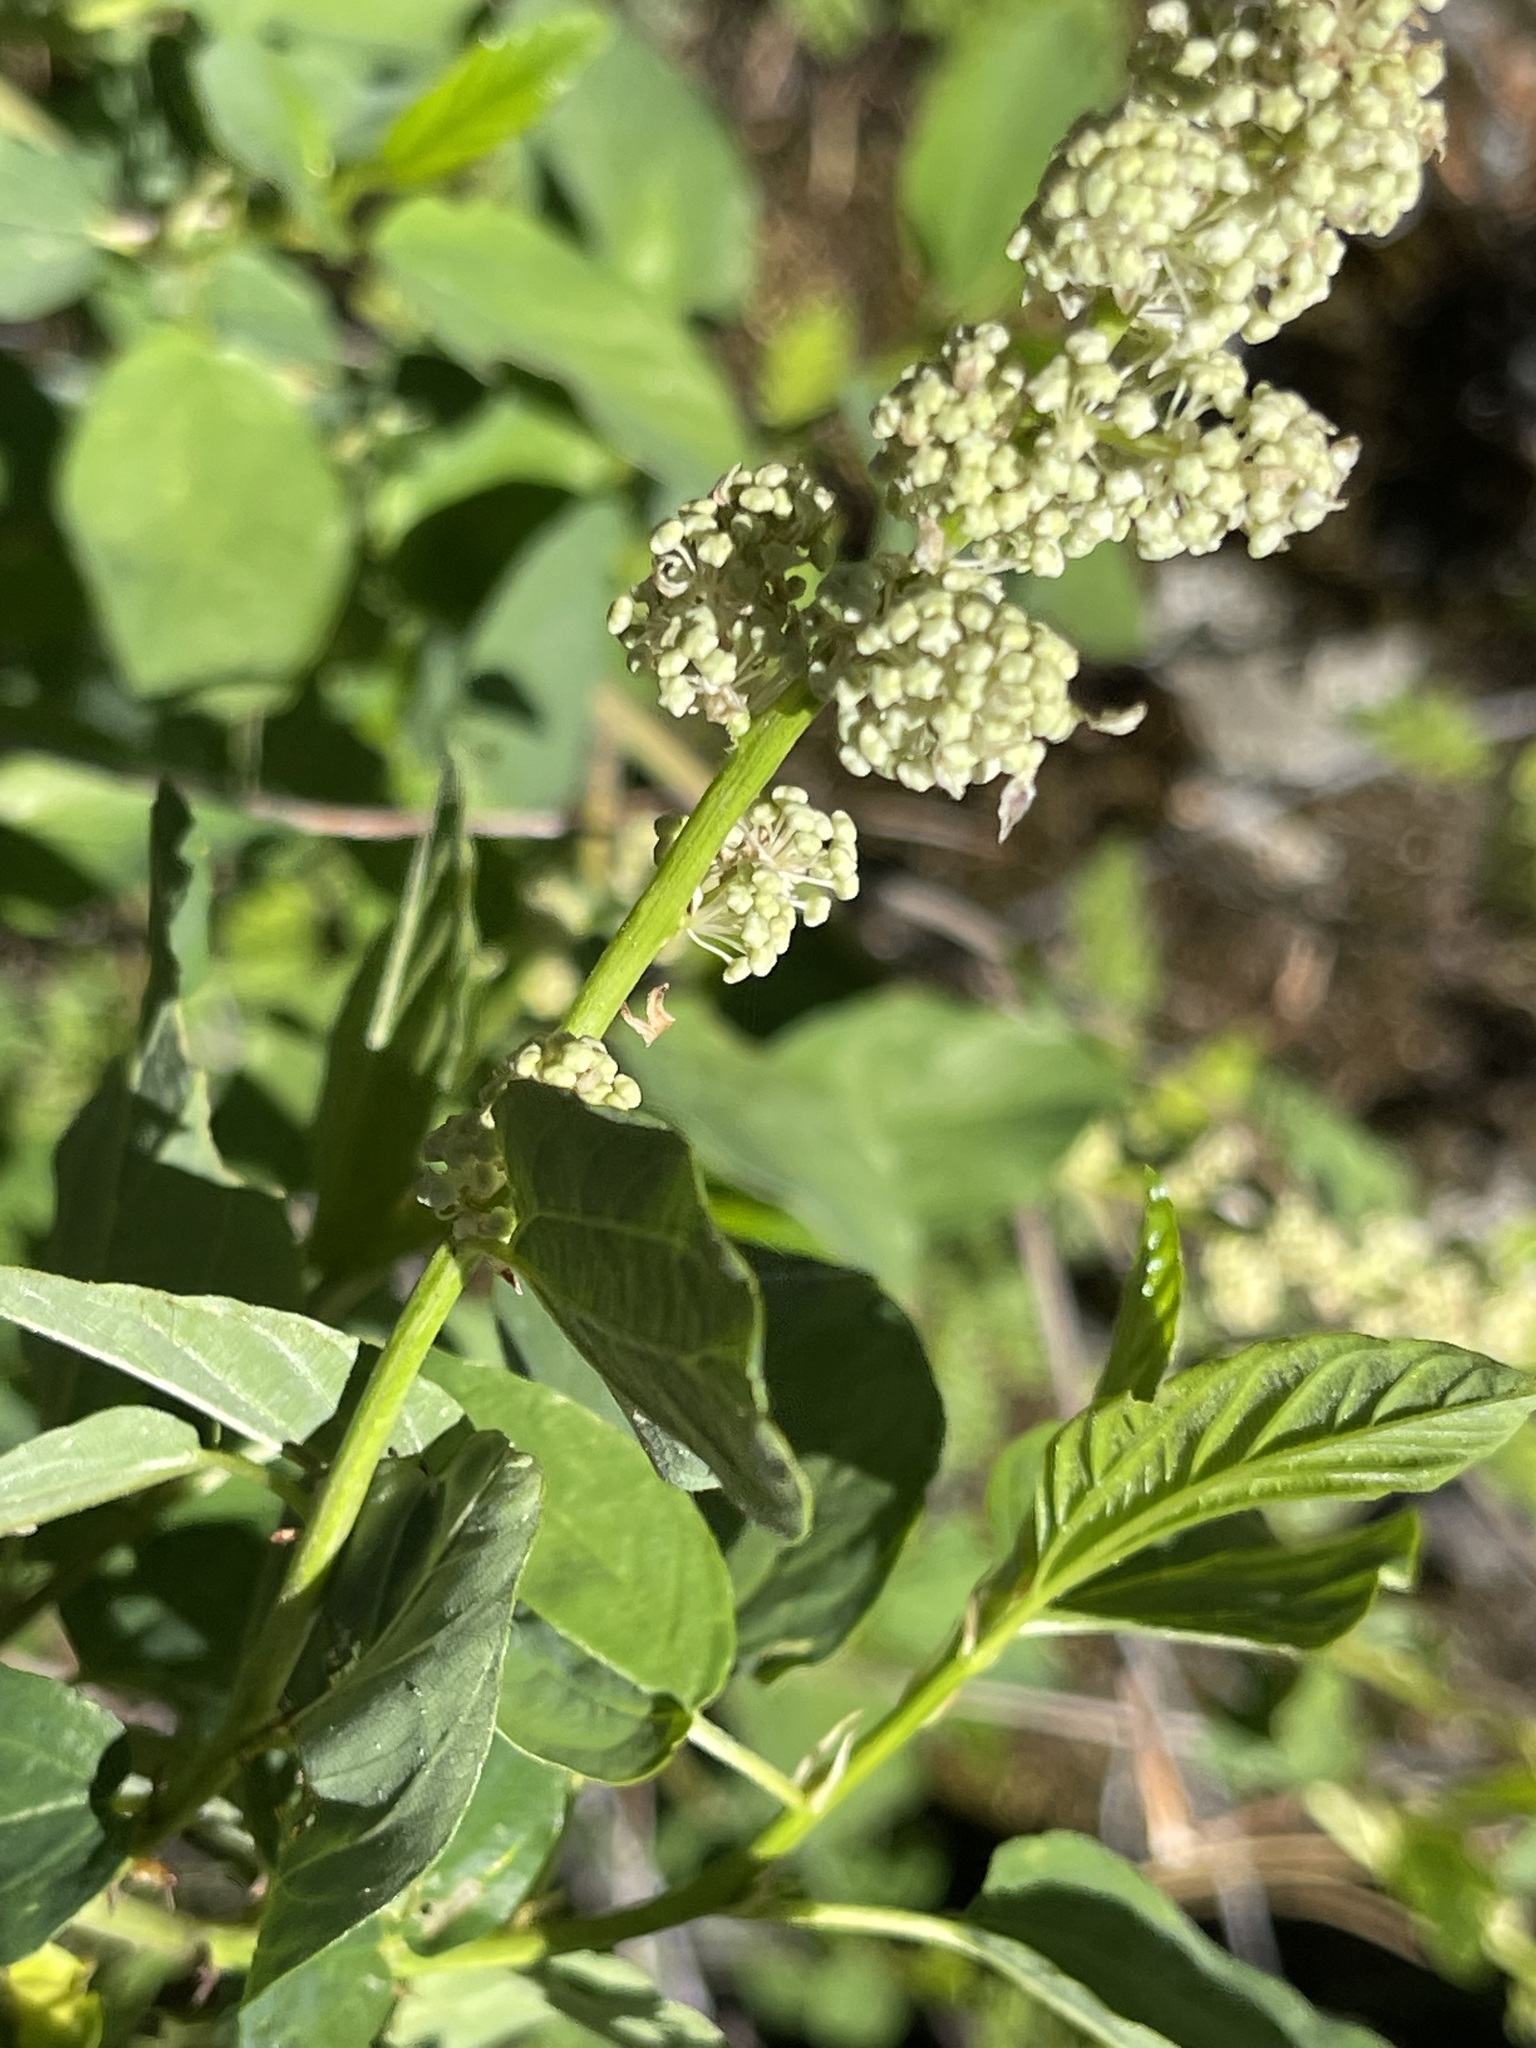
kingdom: Plantae
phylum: Tracheophyta
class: Magnoliopsida
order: Rosales
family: Rhamnaceae
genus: Ceanothus
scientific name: Ceanothus integerrimus
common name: Deerbrush ceanothus
